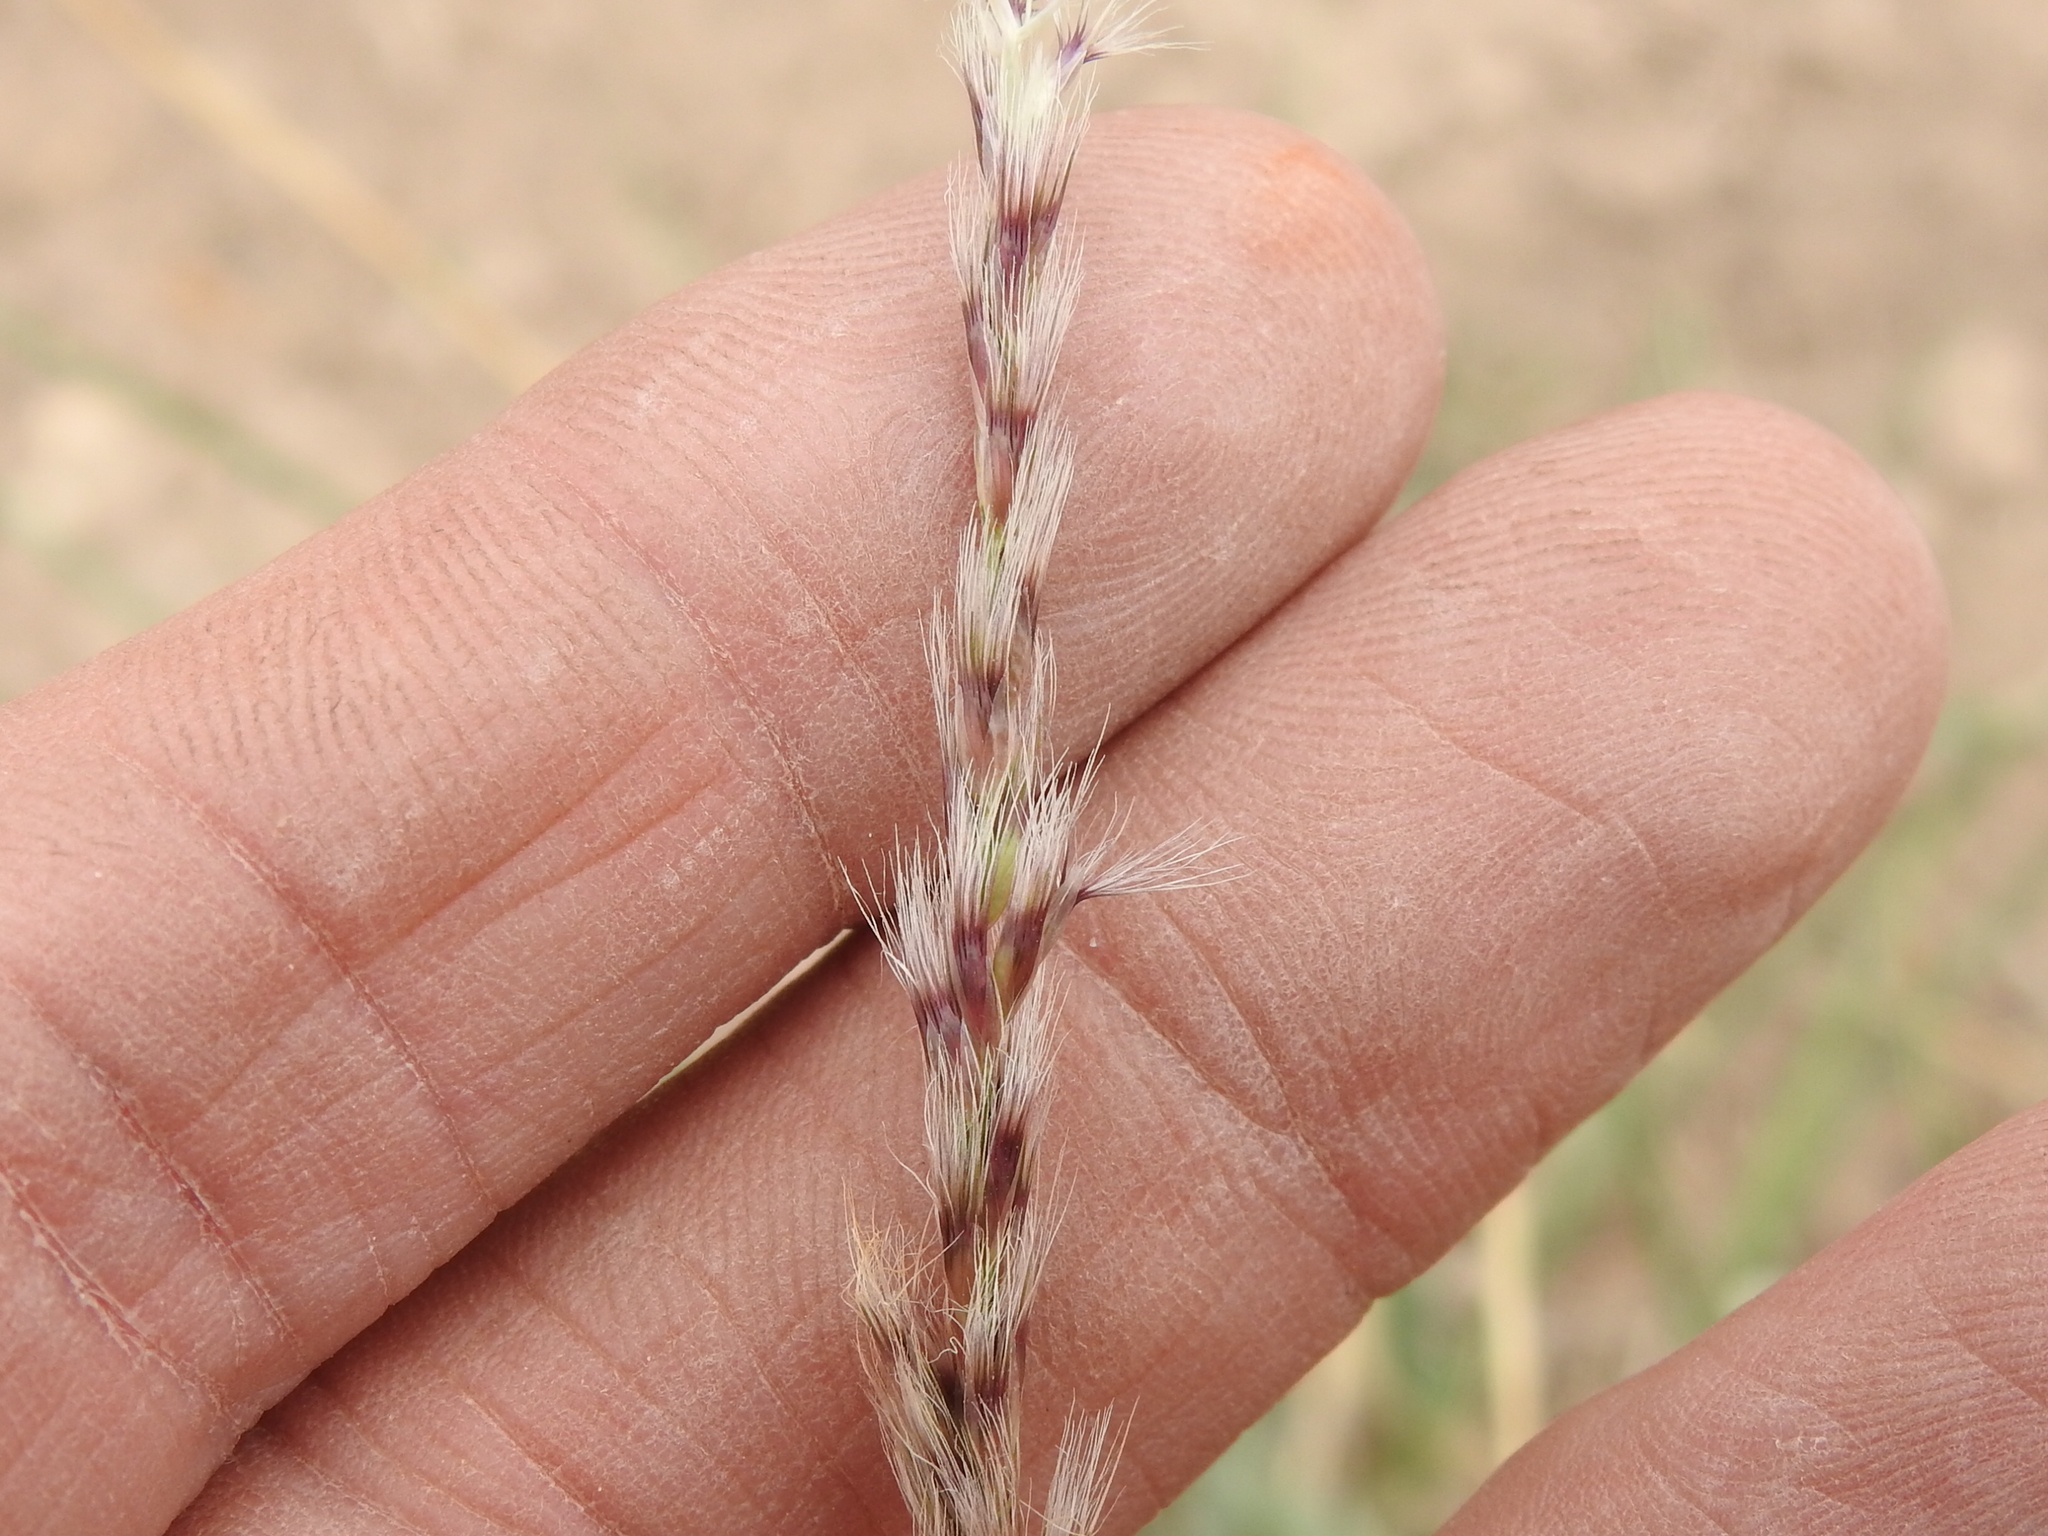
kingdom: Plantae
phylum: Tracheophyta
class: Liliopsida
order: Poales
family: Poaceae
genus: Pappophorum
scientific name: Pappophorum bicolor
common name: Pink pappus grass
